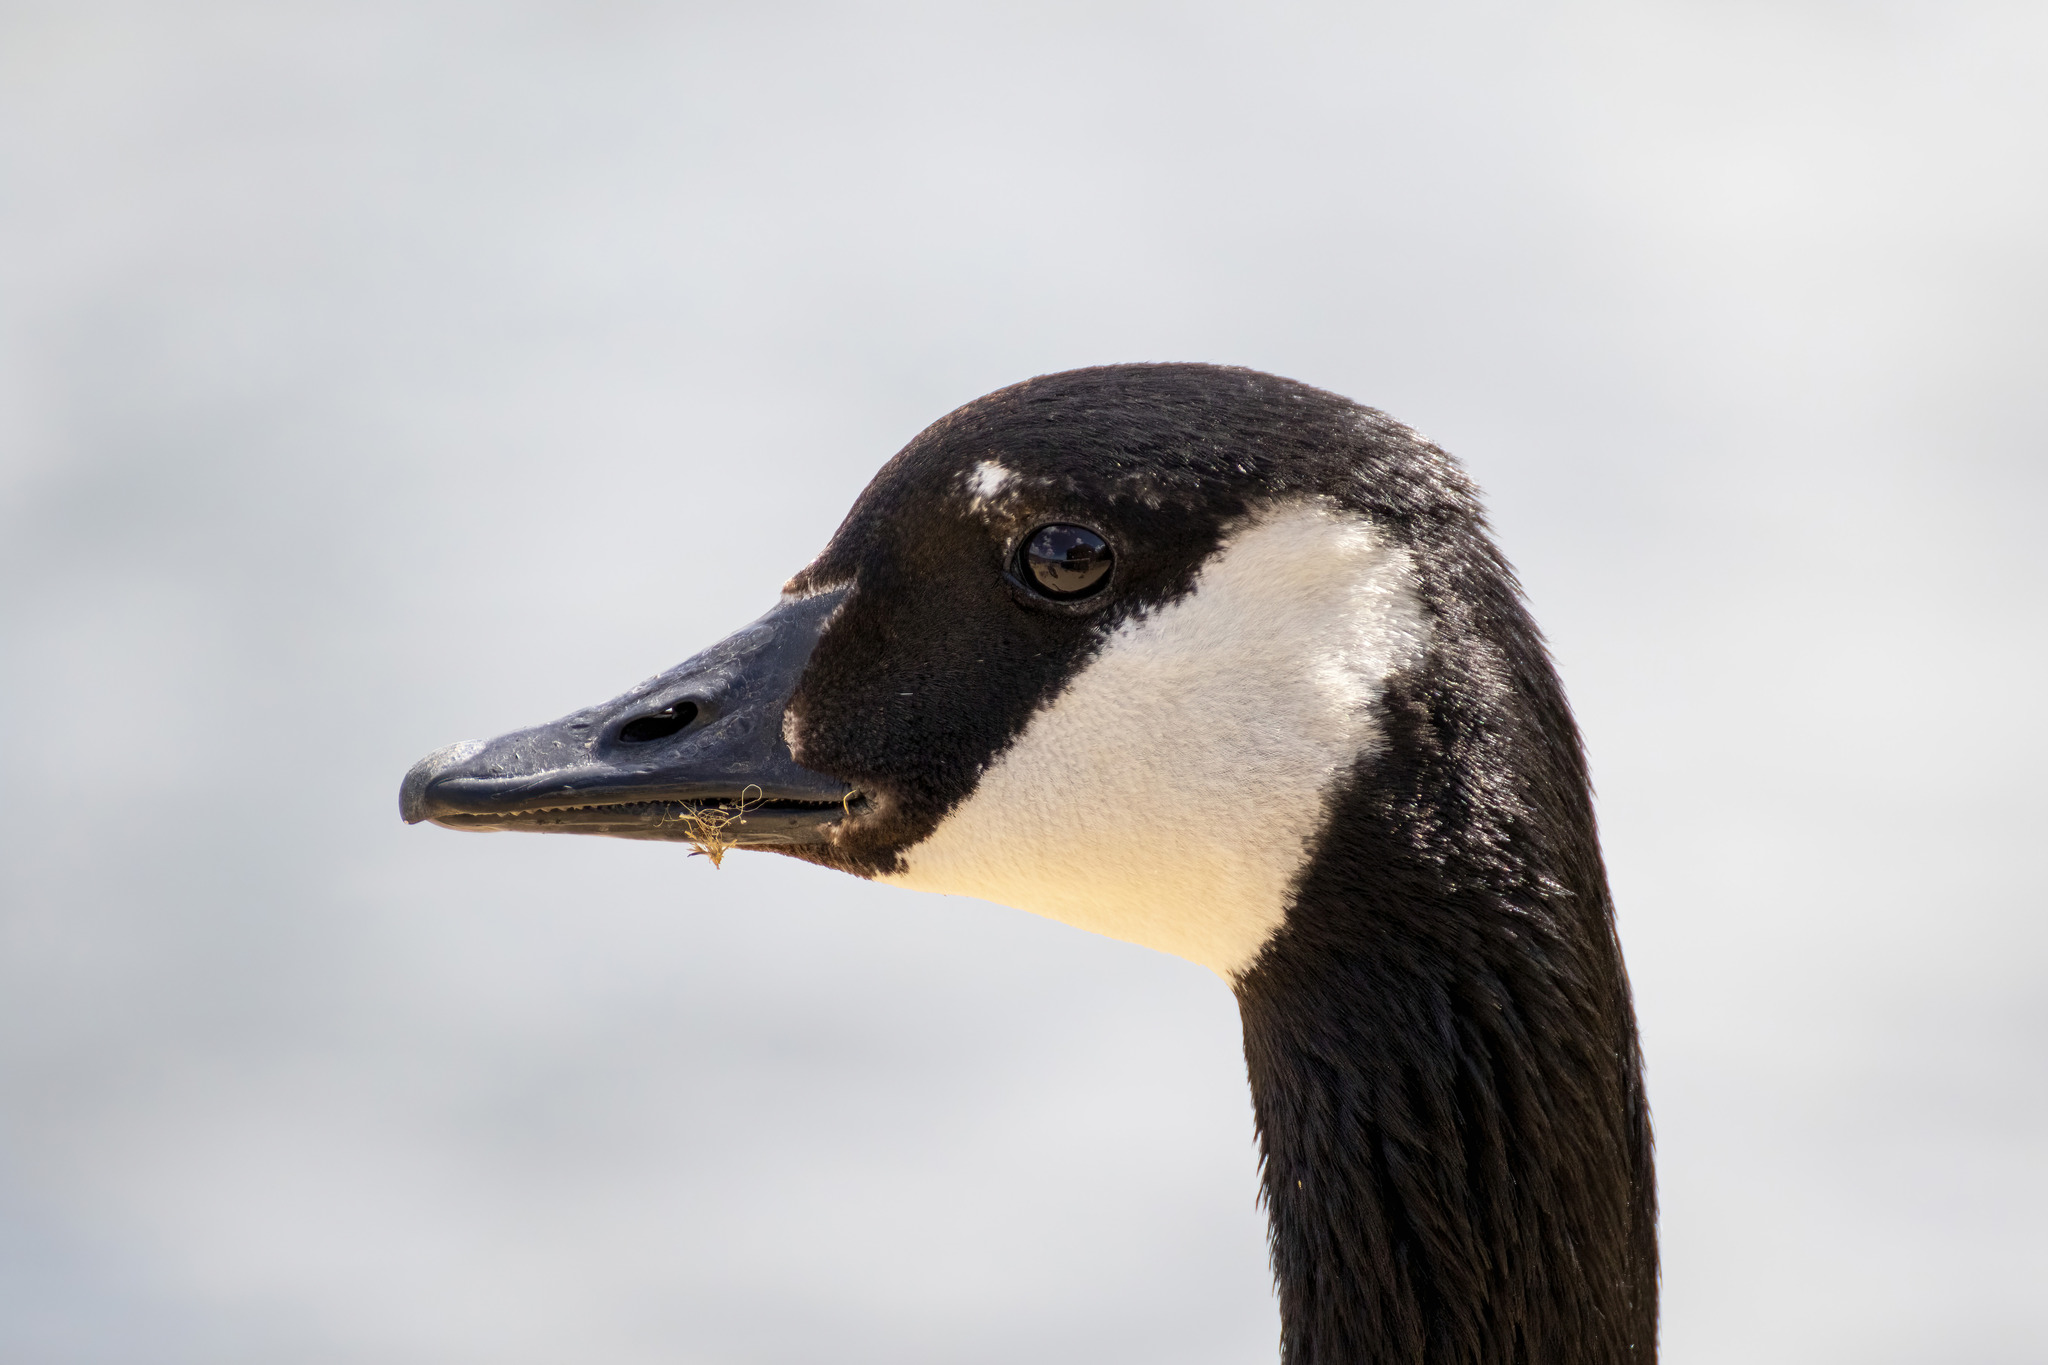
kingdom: Animalia
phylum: Chordata
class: Aves
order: Anseriformes
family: Anatidae
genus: Branta
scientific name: Branta canadensis
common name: Canada goose
